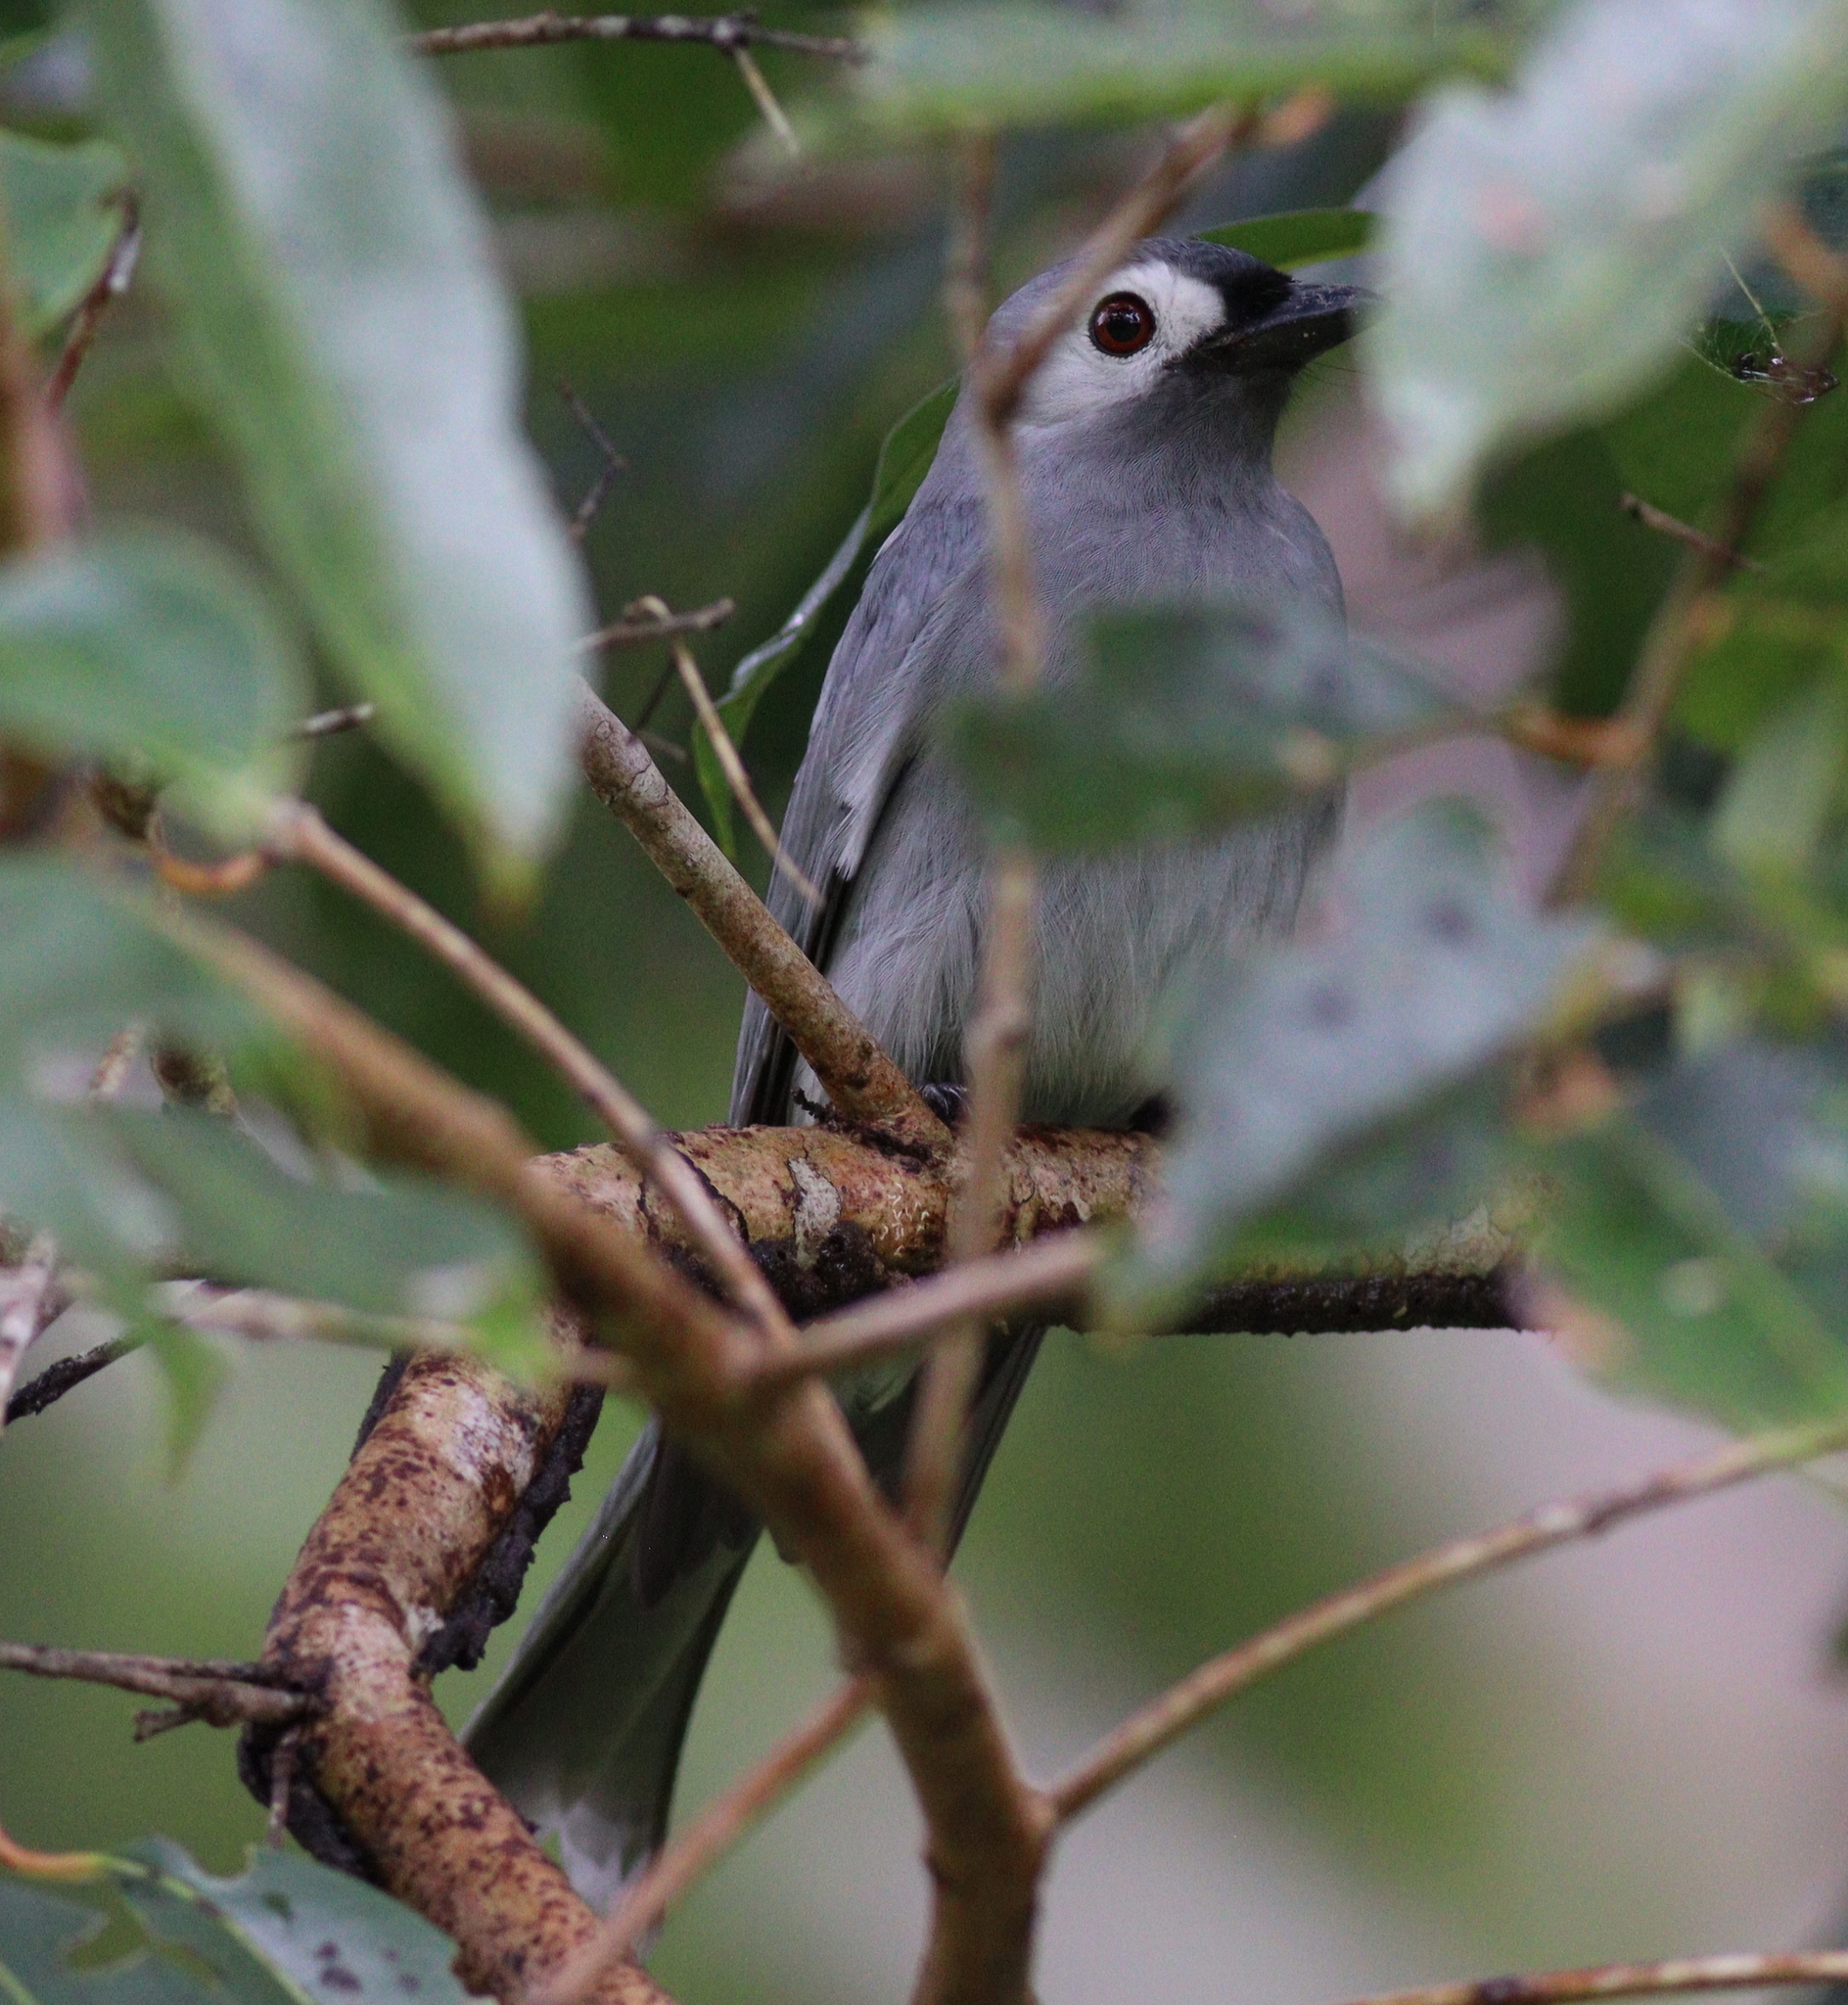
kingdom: Animalia
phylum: Chordata
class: Aves
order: Passeriformes
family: Dicruridae
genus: Dicrurus
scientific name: Dicrurus leucophaeus
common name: Ashy drongo
